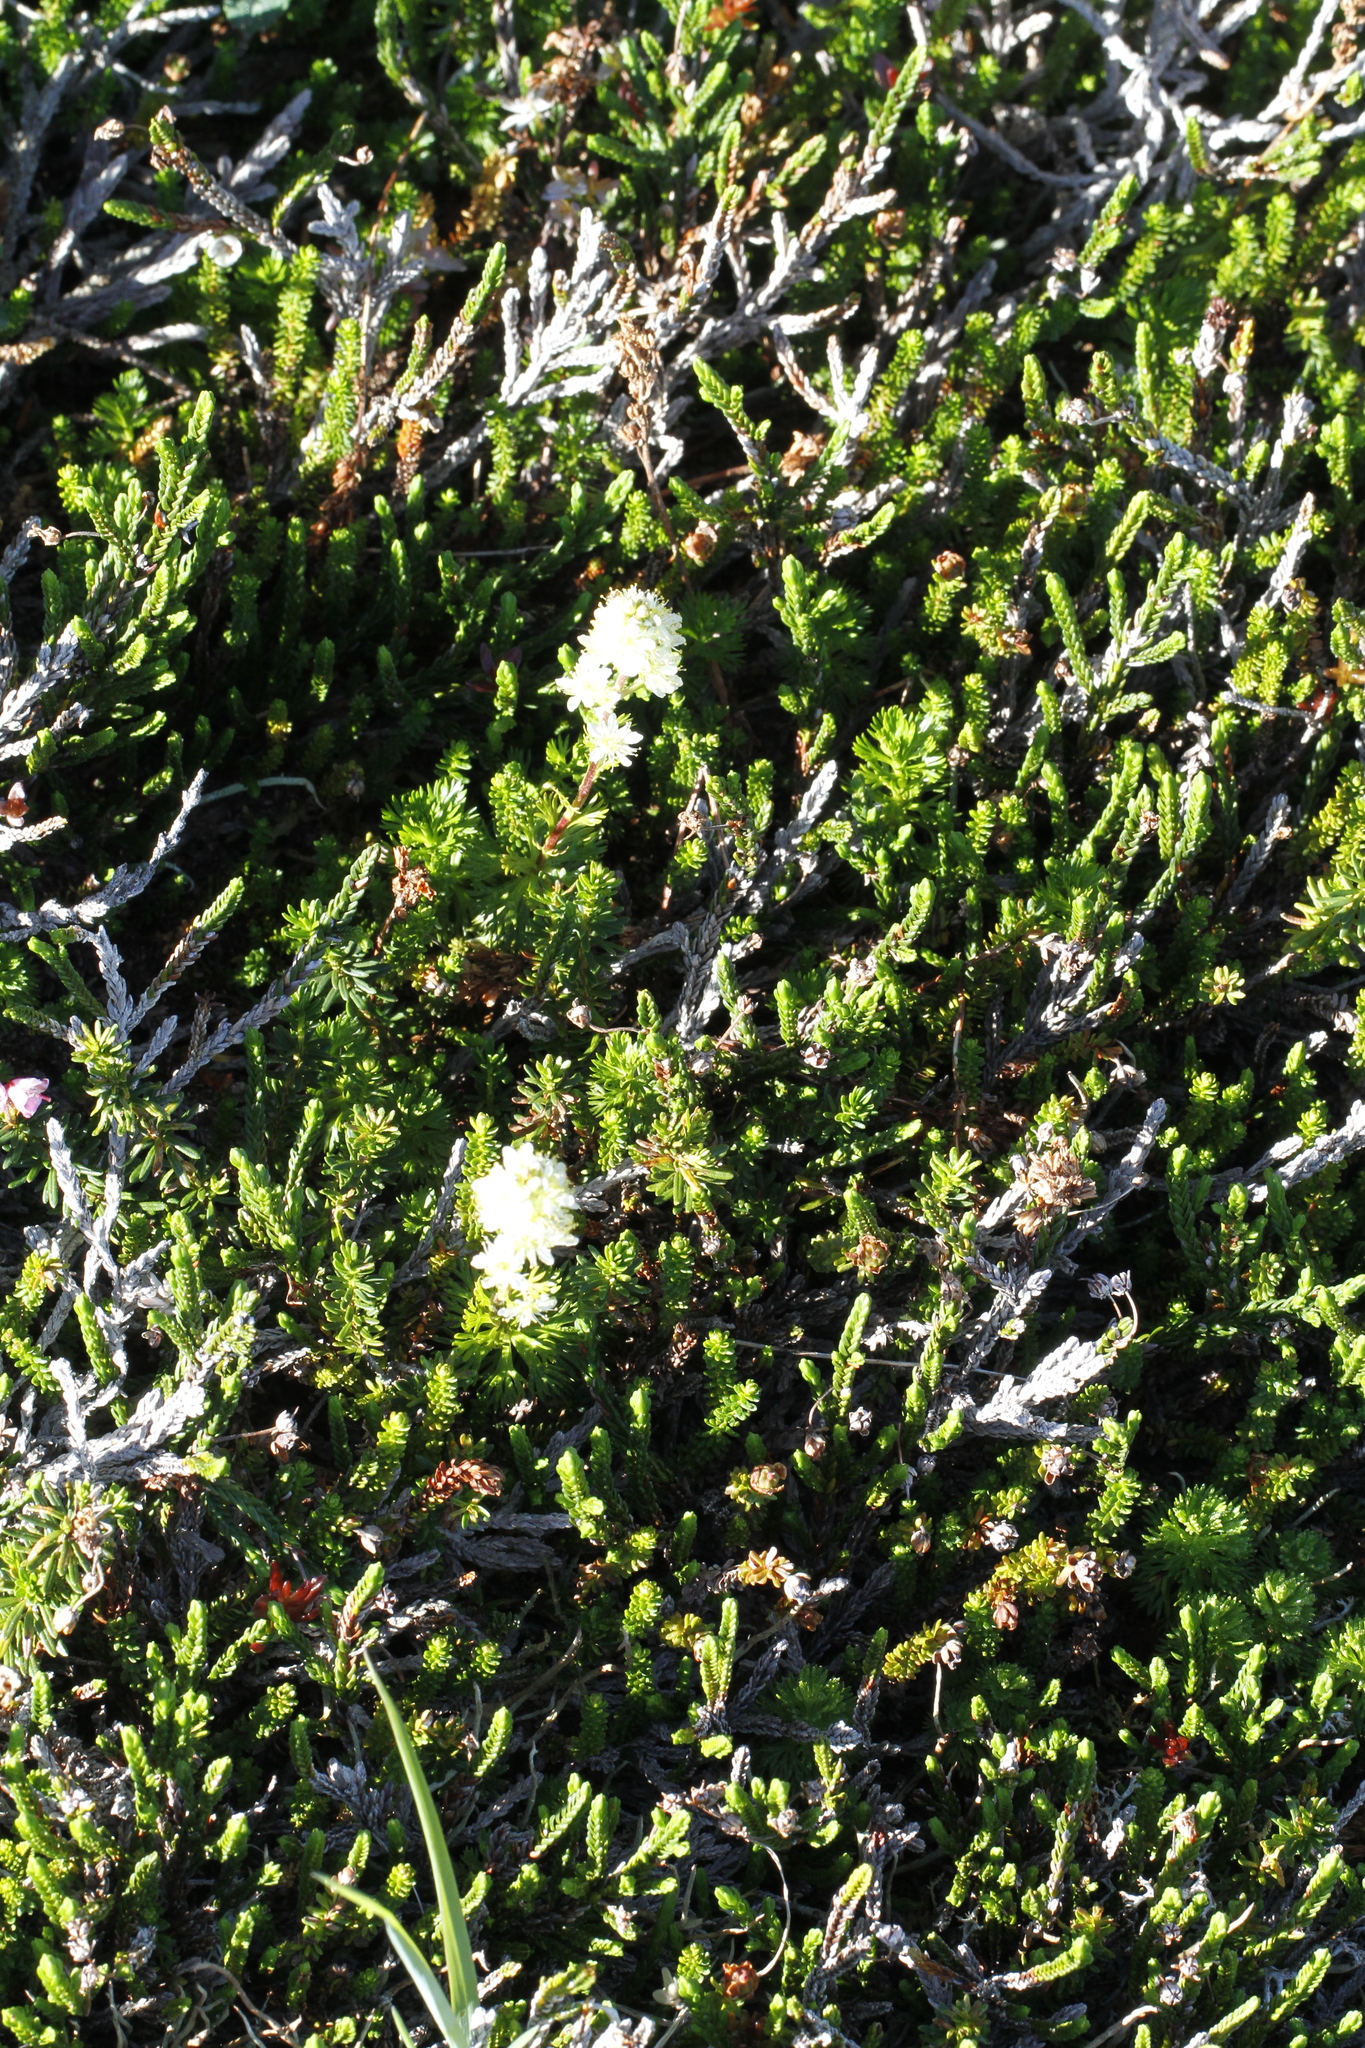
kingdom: Plantae
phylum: Tracheophyta
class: Magnoliopsida
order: Rosales
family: Rosaceae
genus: Luetkea
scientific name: Luetkea pectinata
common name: Partridgefoot
